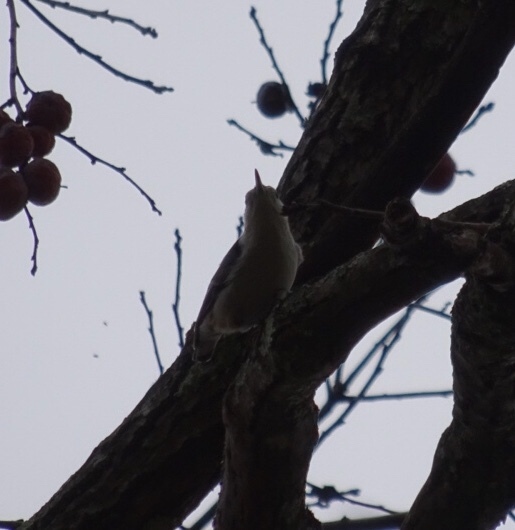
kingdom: Animalia
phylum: Chordata
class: Aves
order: Passeriformes
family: Sittidae
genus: Sitta
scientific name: Sitta carolinensis
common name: White-breasted nuthatch
